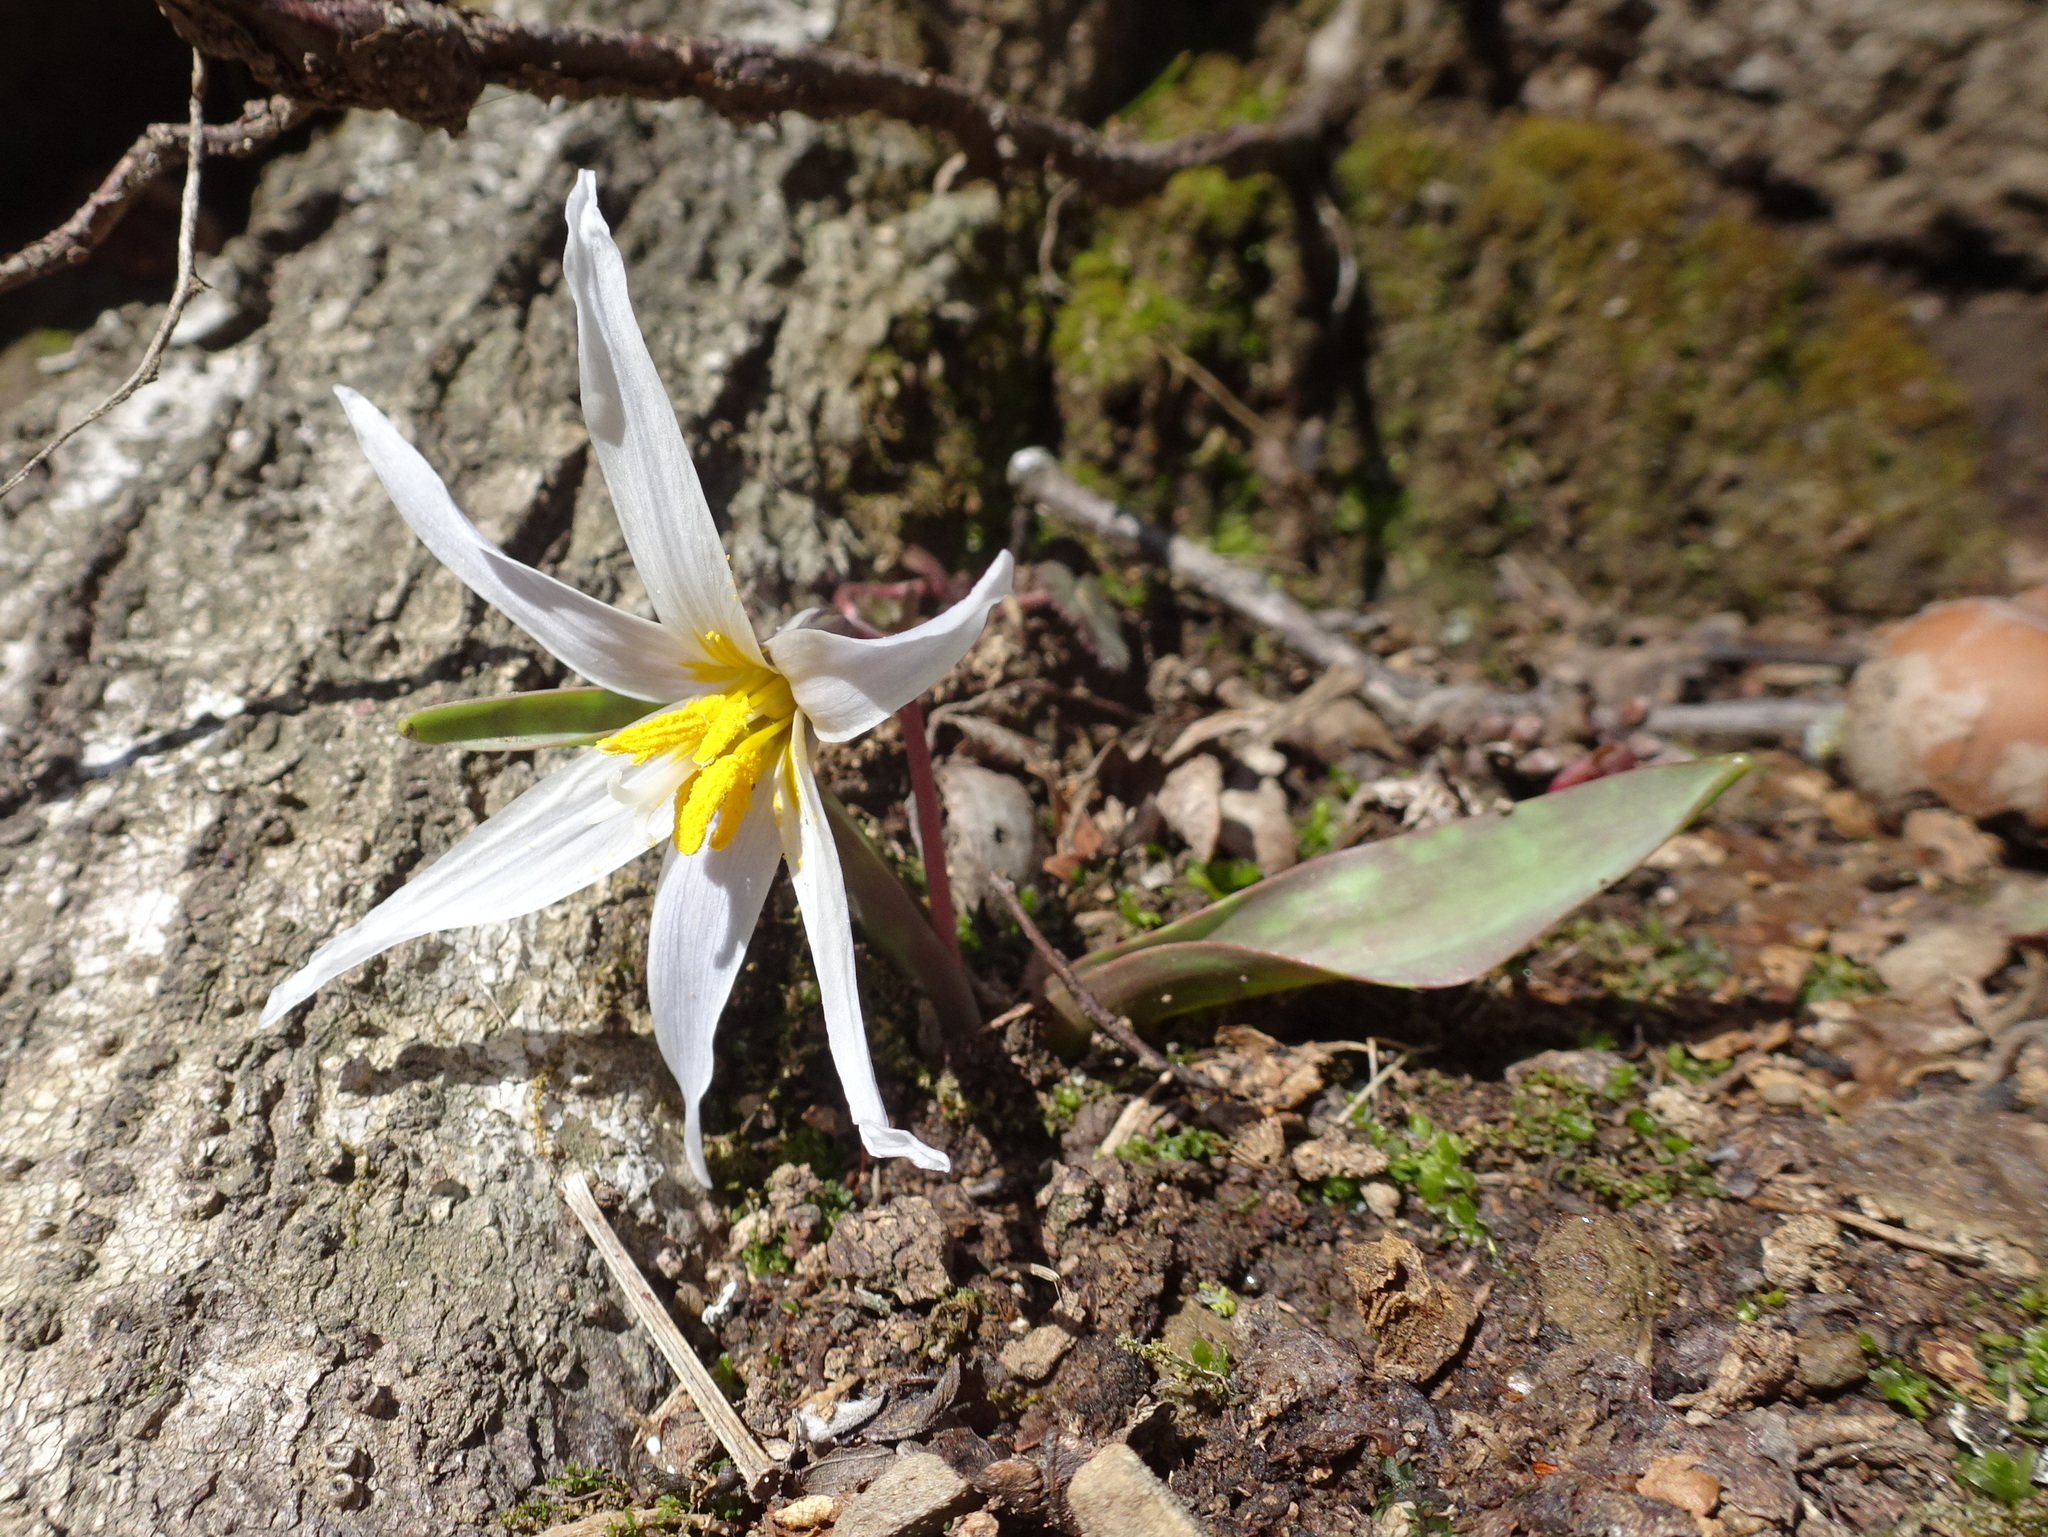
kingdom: Plantae
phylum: Tracheophyta
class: Liliopsida
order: Liliales
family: Liliaceae
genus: Erythronium
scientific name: Erythronium mesochoreum
